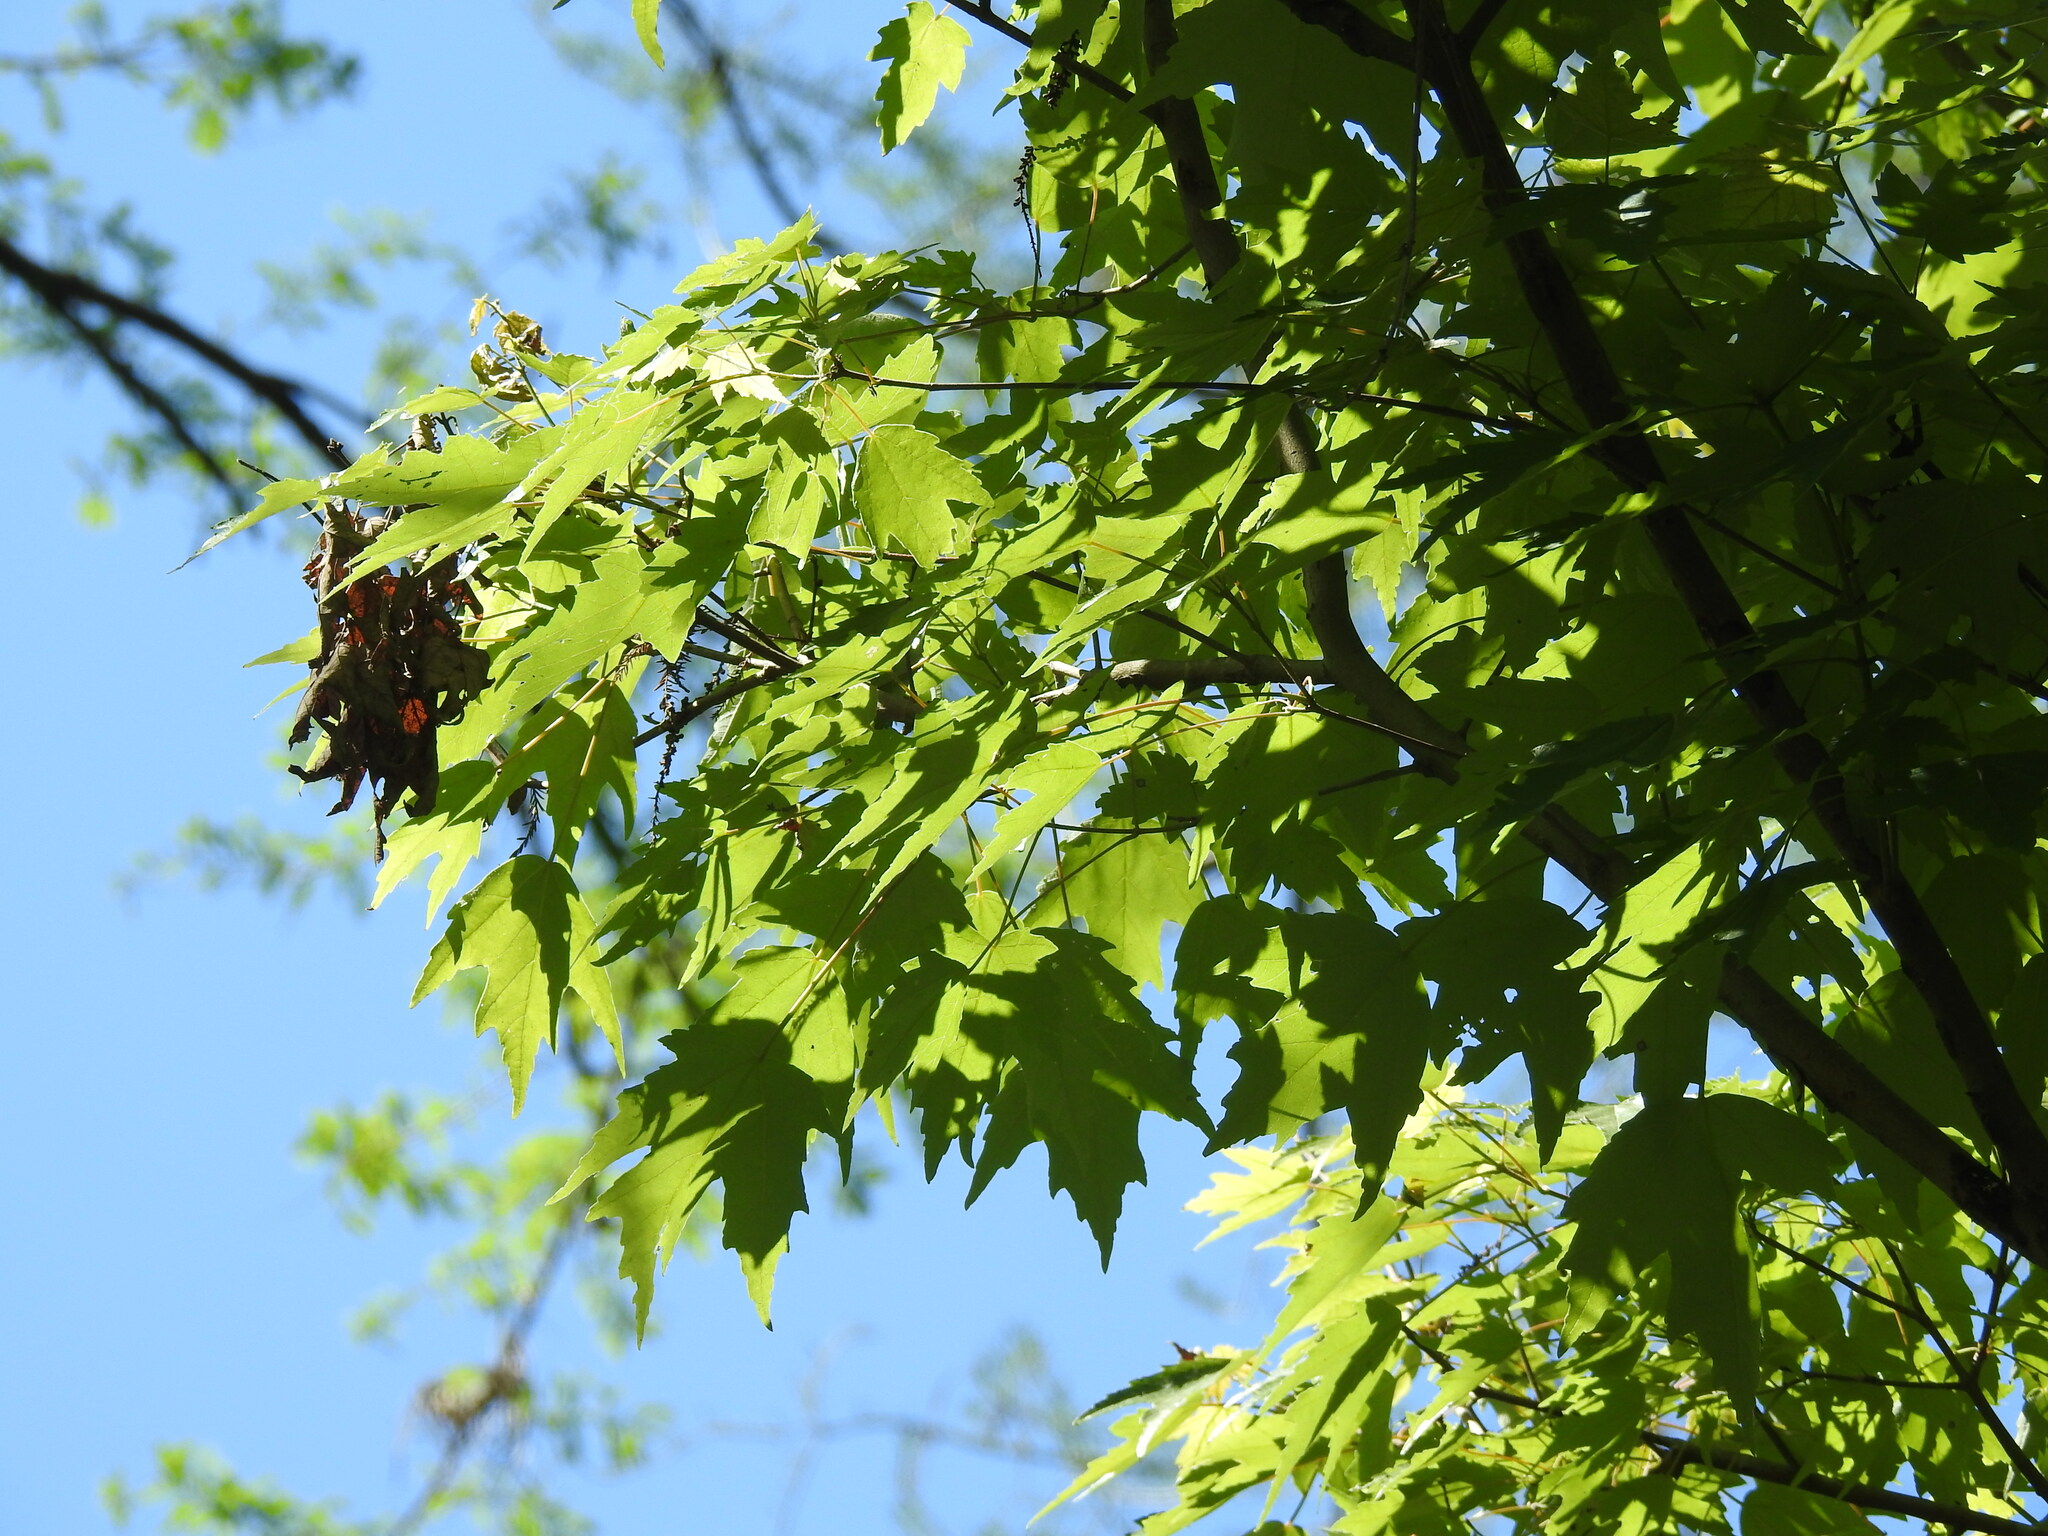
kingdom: Plantae
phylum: Tracheophyta
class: Magnoliopsida
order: Sapindales
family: Sapindaceae
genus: Acer
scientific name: Acer rubrum
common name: Red maple
